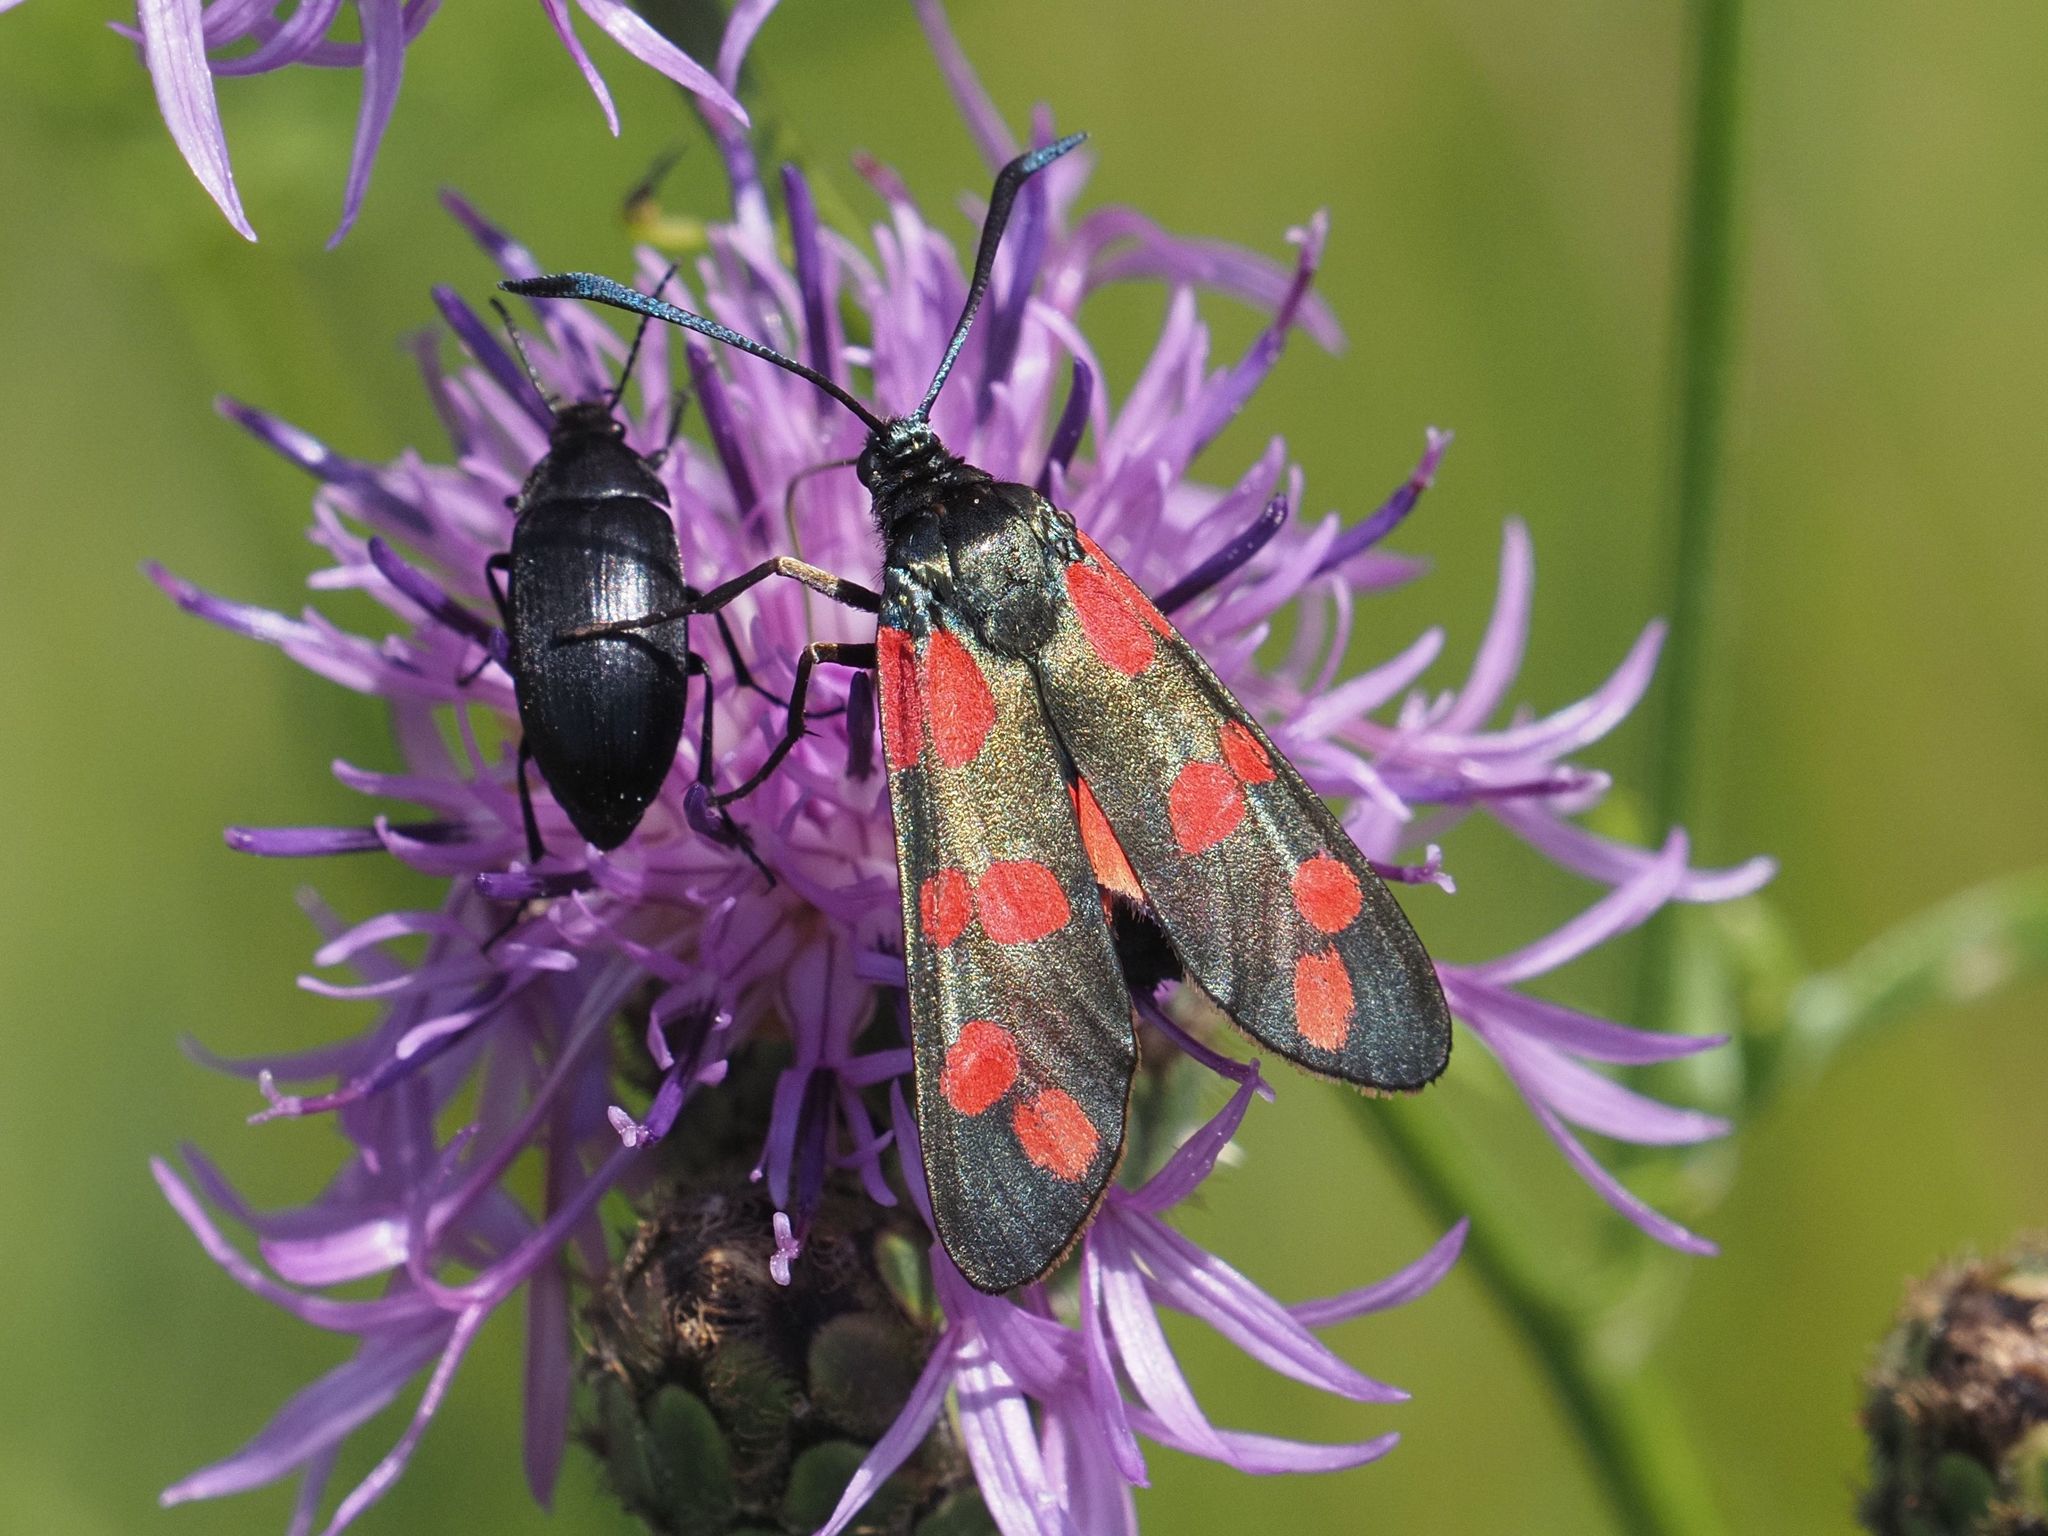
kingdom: Animalia
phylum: Arthropoda
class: Insecta
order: Lepidoptera
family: Zygaenidae
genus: Zygaena
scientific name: Zygaena filipendulae
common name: Six-spot burnet
